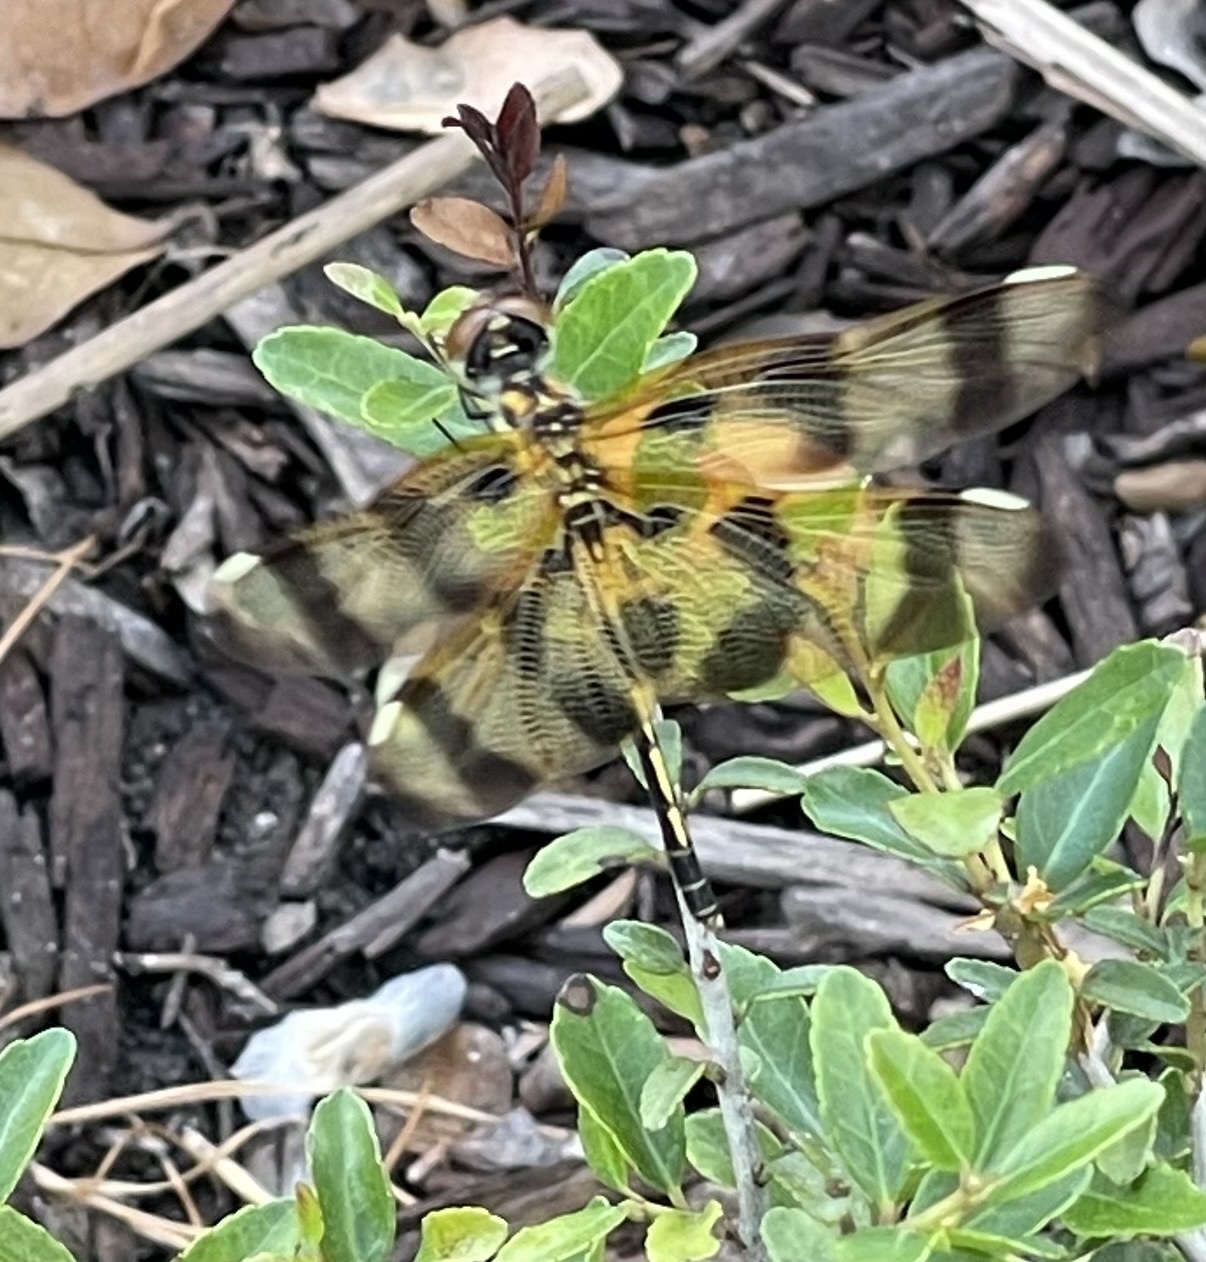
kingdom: Animalia
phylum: Arthropoda
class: Insecta
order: Odonata
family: Libellulidae
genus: Celithemis
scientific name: Celithemis eponina
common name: Halloween pennant
